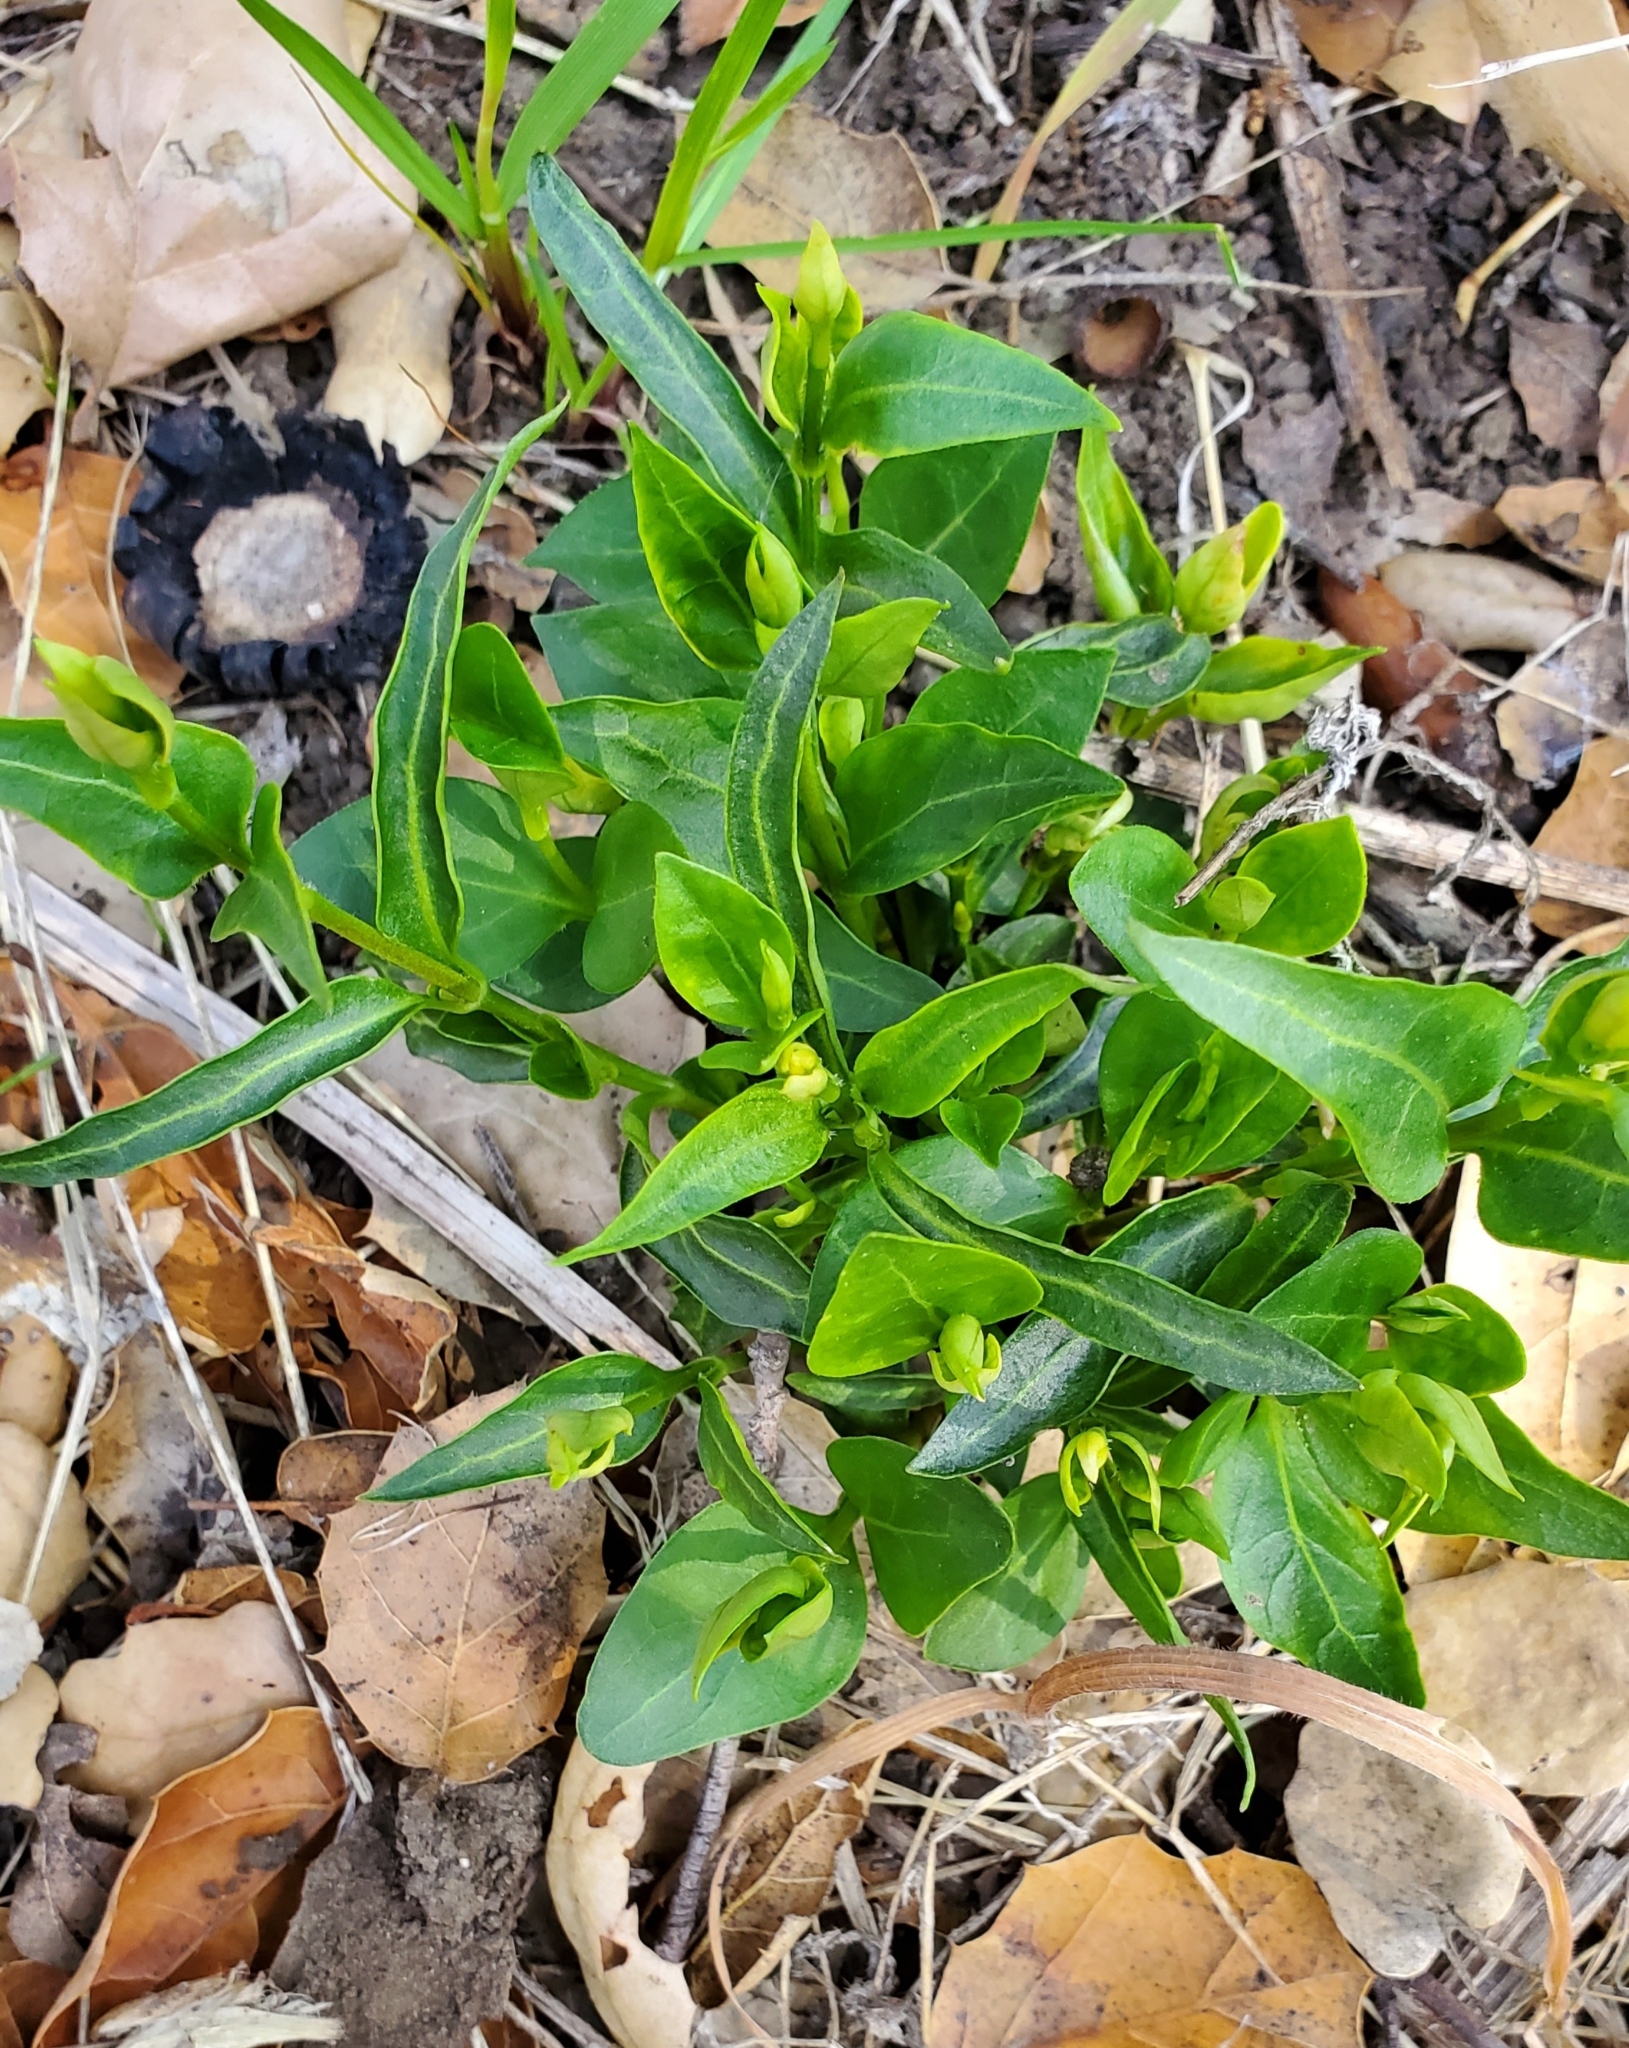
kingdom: Plantae
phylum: Tracheophyta
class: Magnoliopsida
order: Gentianales
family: Apocynaceae
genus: Vinca
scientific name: Vinca major
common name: Greater periwinkle
